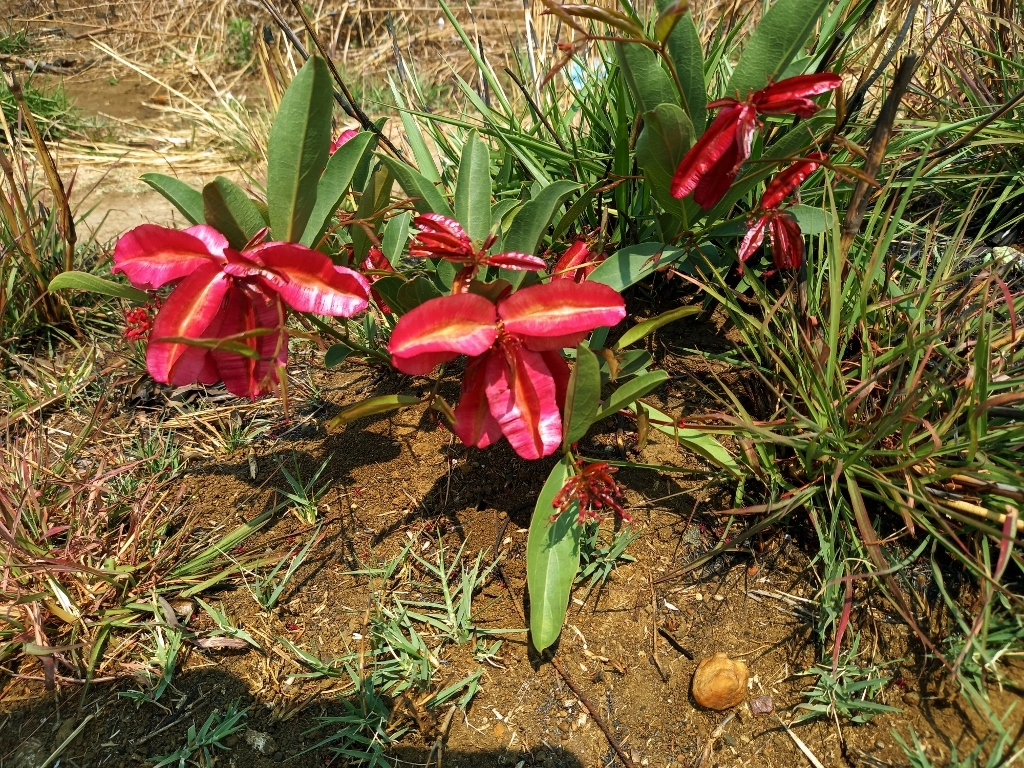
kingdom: Plantae
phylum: Tracheophyta
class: Magnoliopsida
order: Myrtales
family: Combretaceae
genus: Combretum
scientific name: Combretum oatesii
